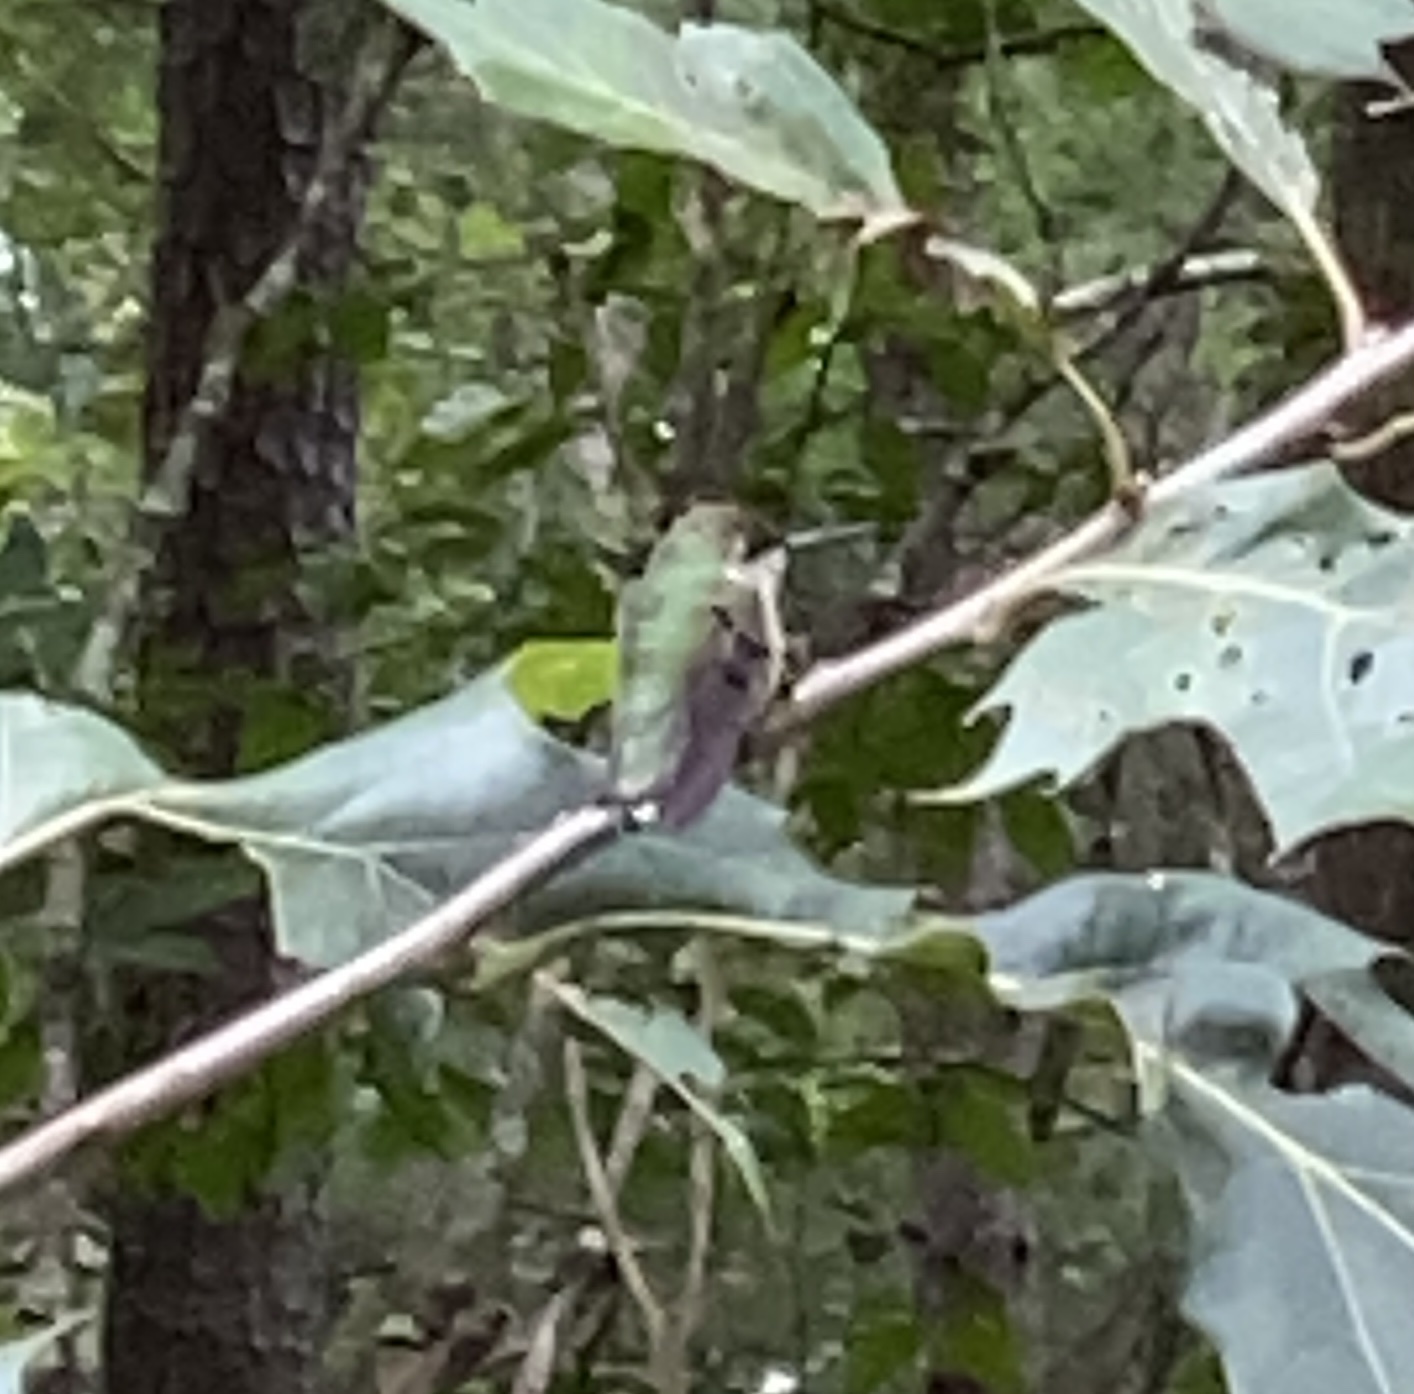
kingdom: Animalia
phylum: Chordata
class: Aves
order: Apodiformes
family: Trochilidae
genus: Archilochus
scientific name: Archilochus colubris
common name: Ruby-throated hummingbird
